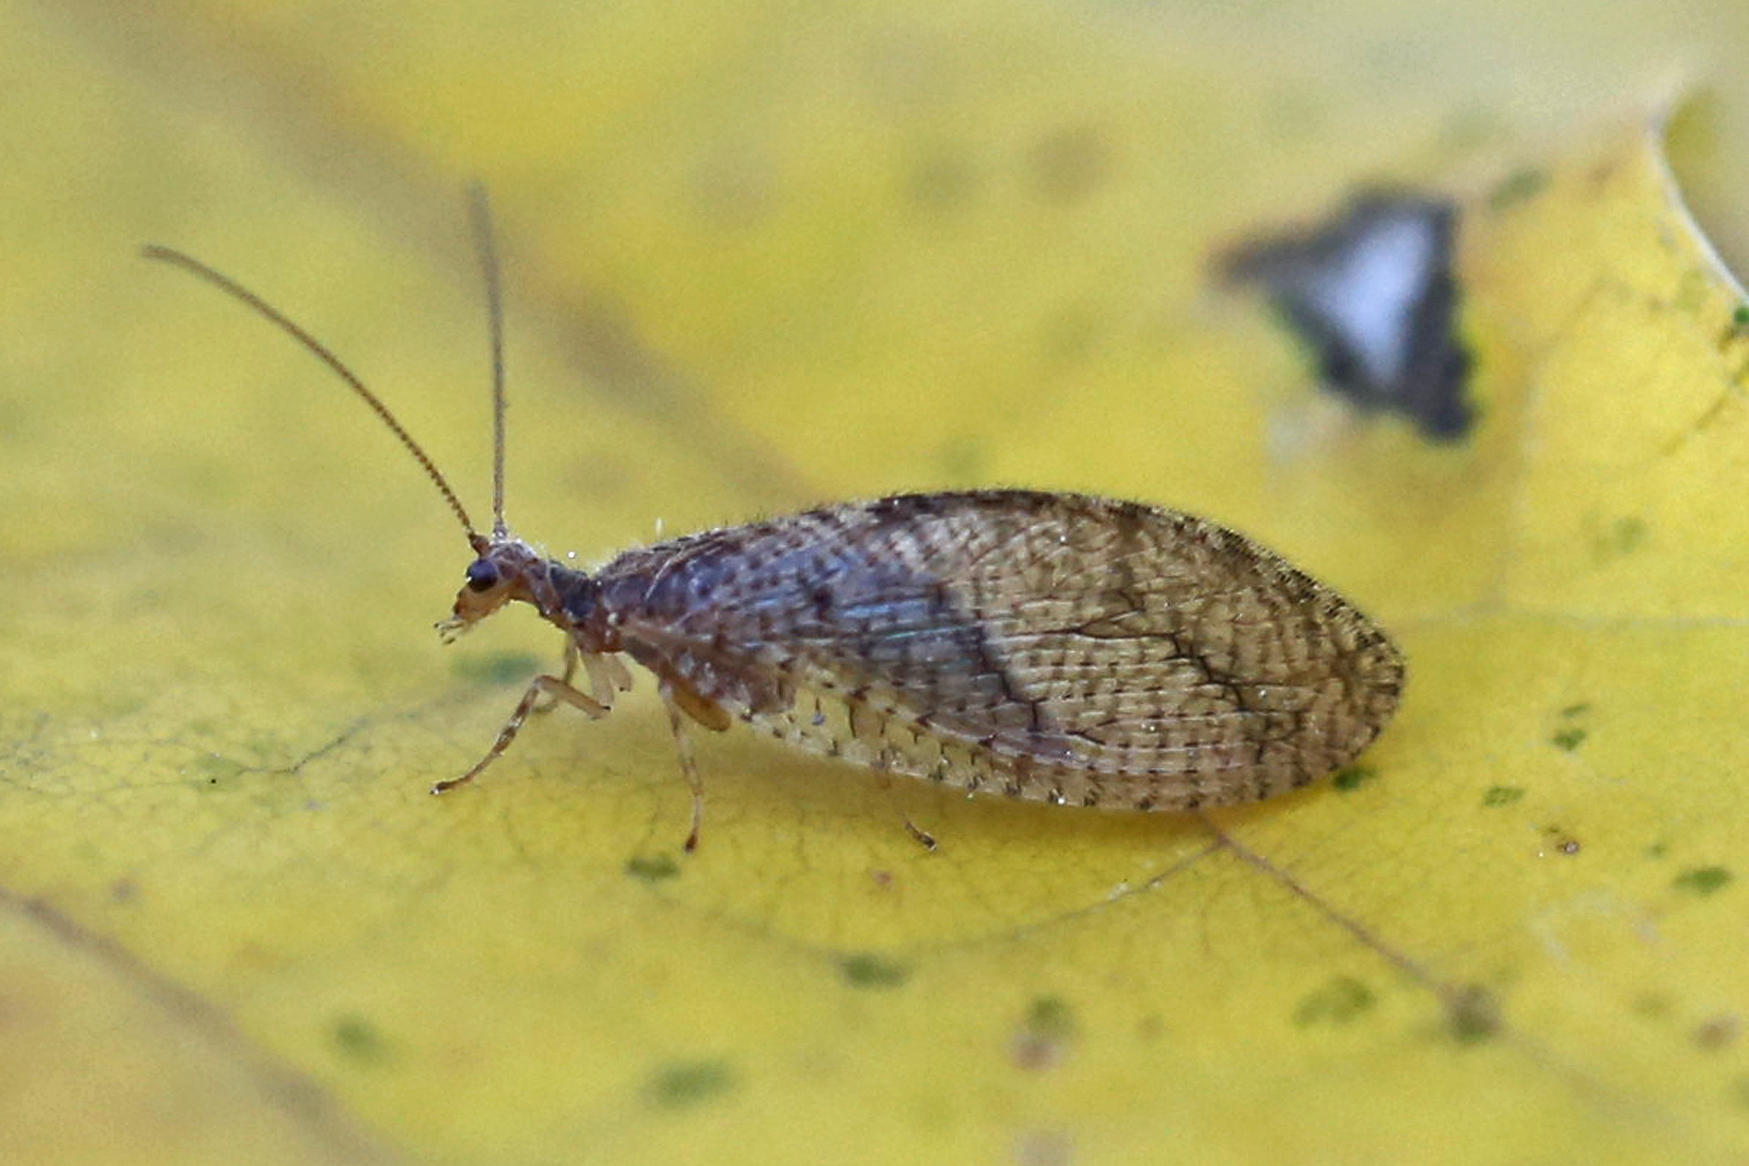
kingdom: Animalia
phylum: Arthropoda
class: Insecta
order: Neuroptera
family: Hemerobiidae
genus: Micromus
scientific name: Micromus posticus
